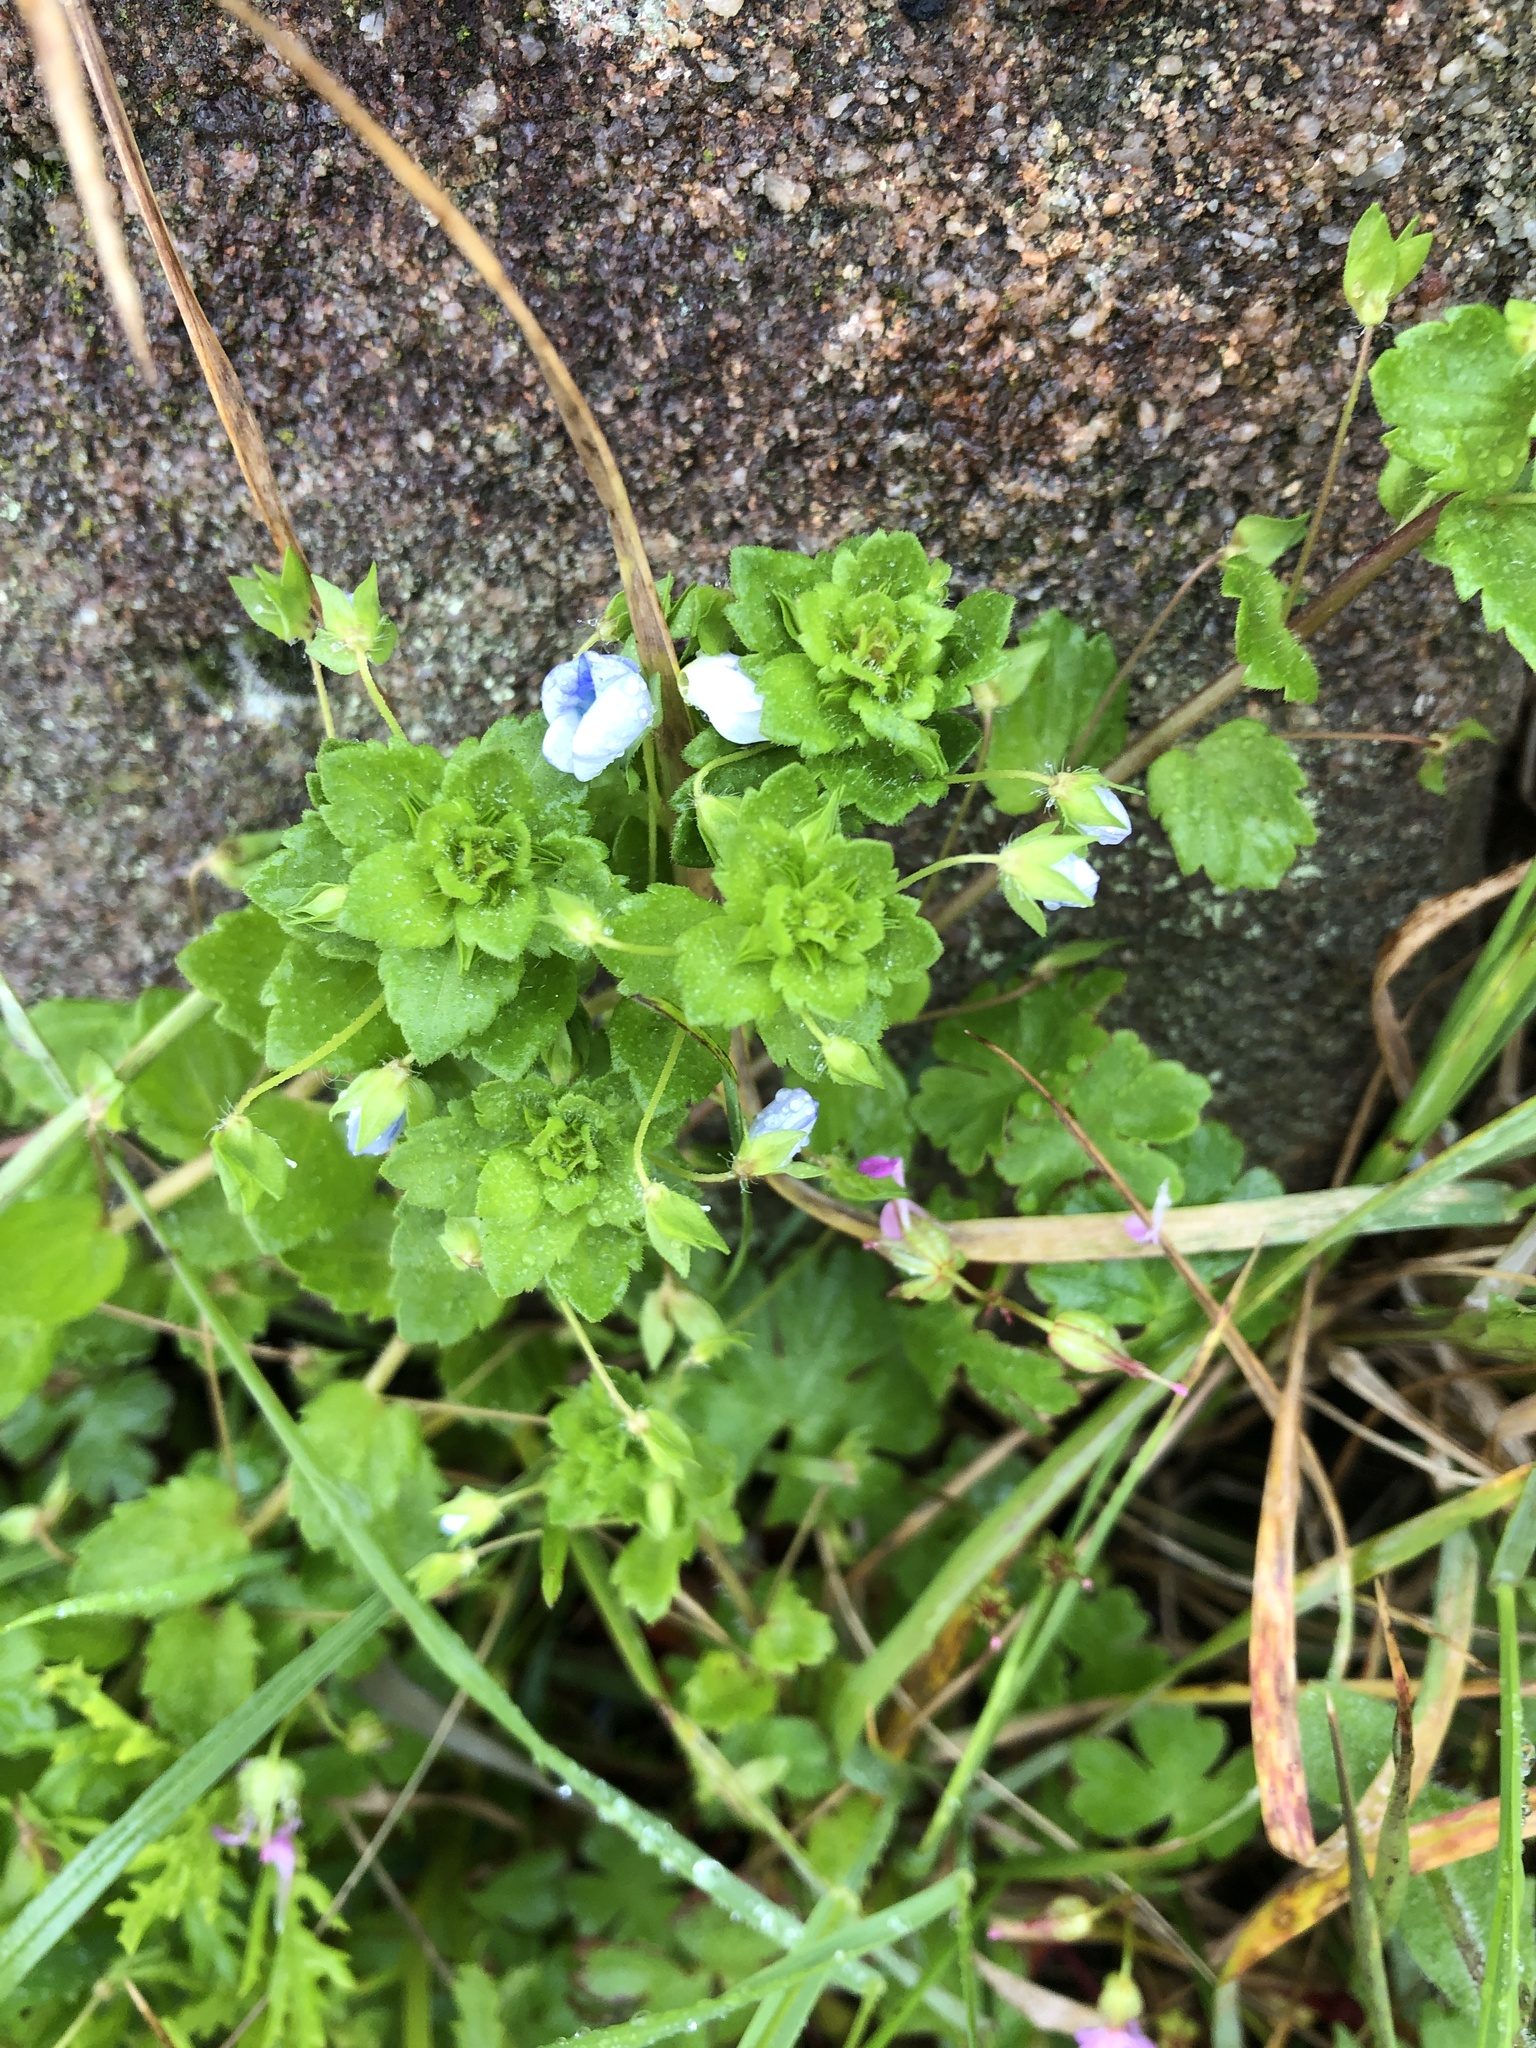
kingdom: Plantae
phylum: Tracheophyta
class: Magnoliopsida
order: Lamiales
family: Plantaginaceae
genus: Veronica
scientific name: Veronica persica
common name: Common field-speedwell
